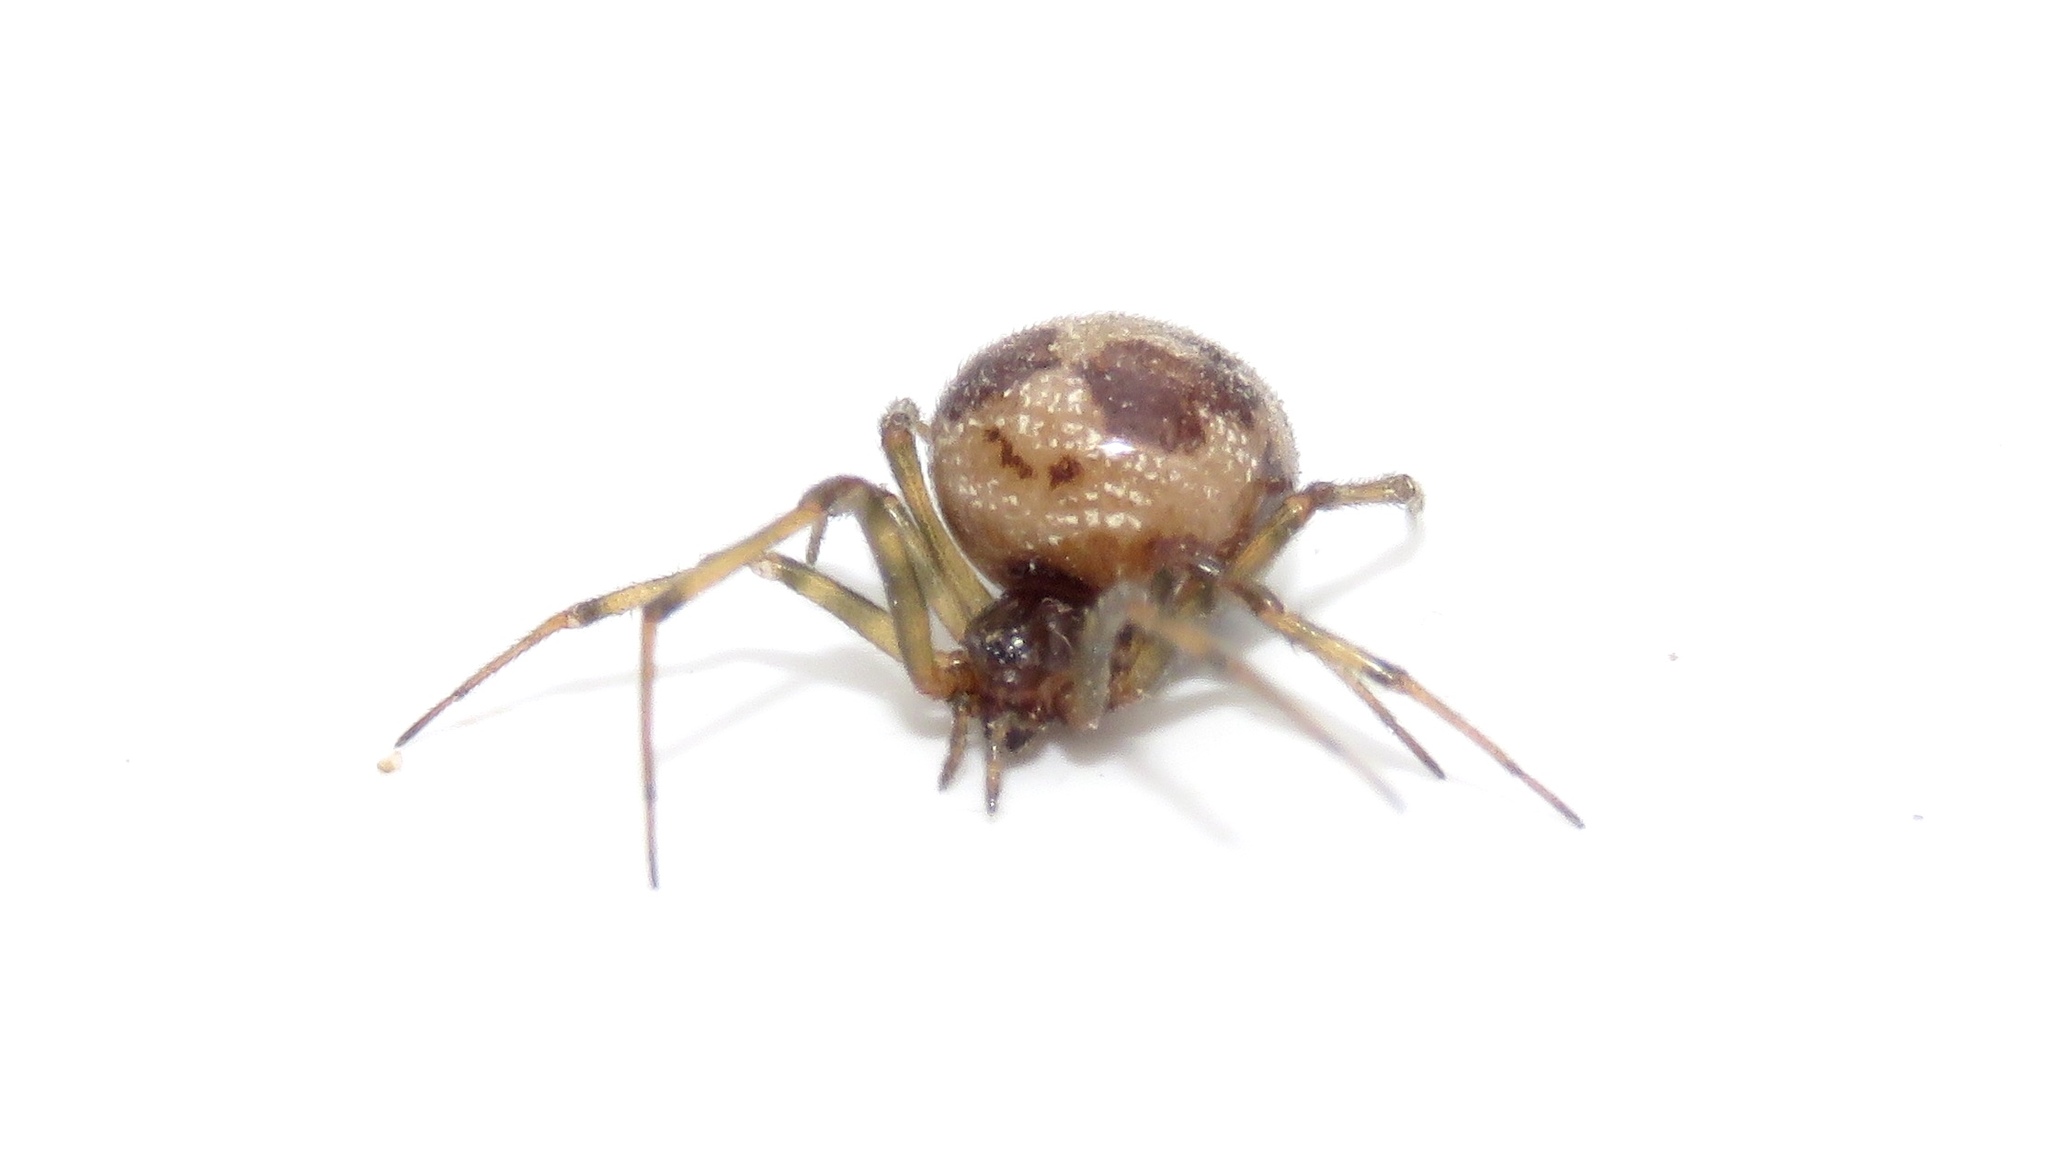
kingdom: Animalia
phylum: Arthropoda
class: Arachnida
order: Araneae
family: Theridiidae
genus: Steatoda
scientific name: Steatoda triangulosa
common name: Triangulate bud spider
